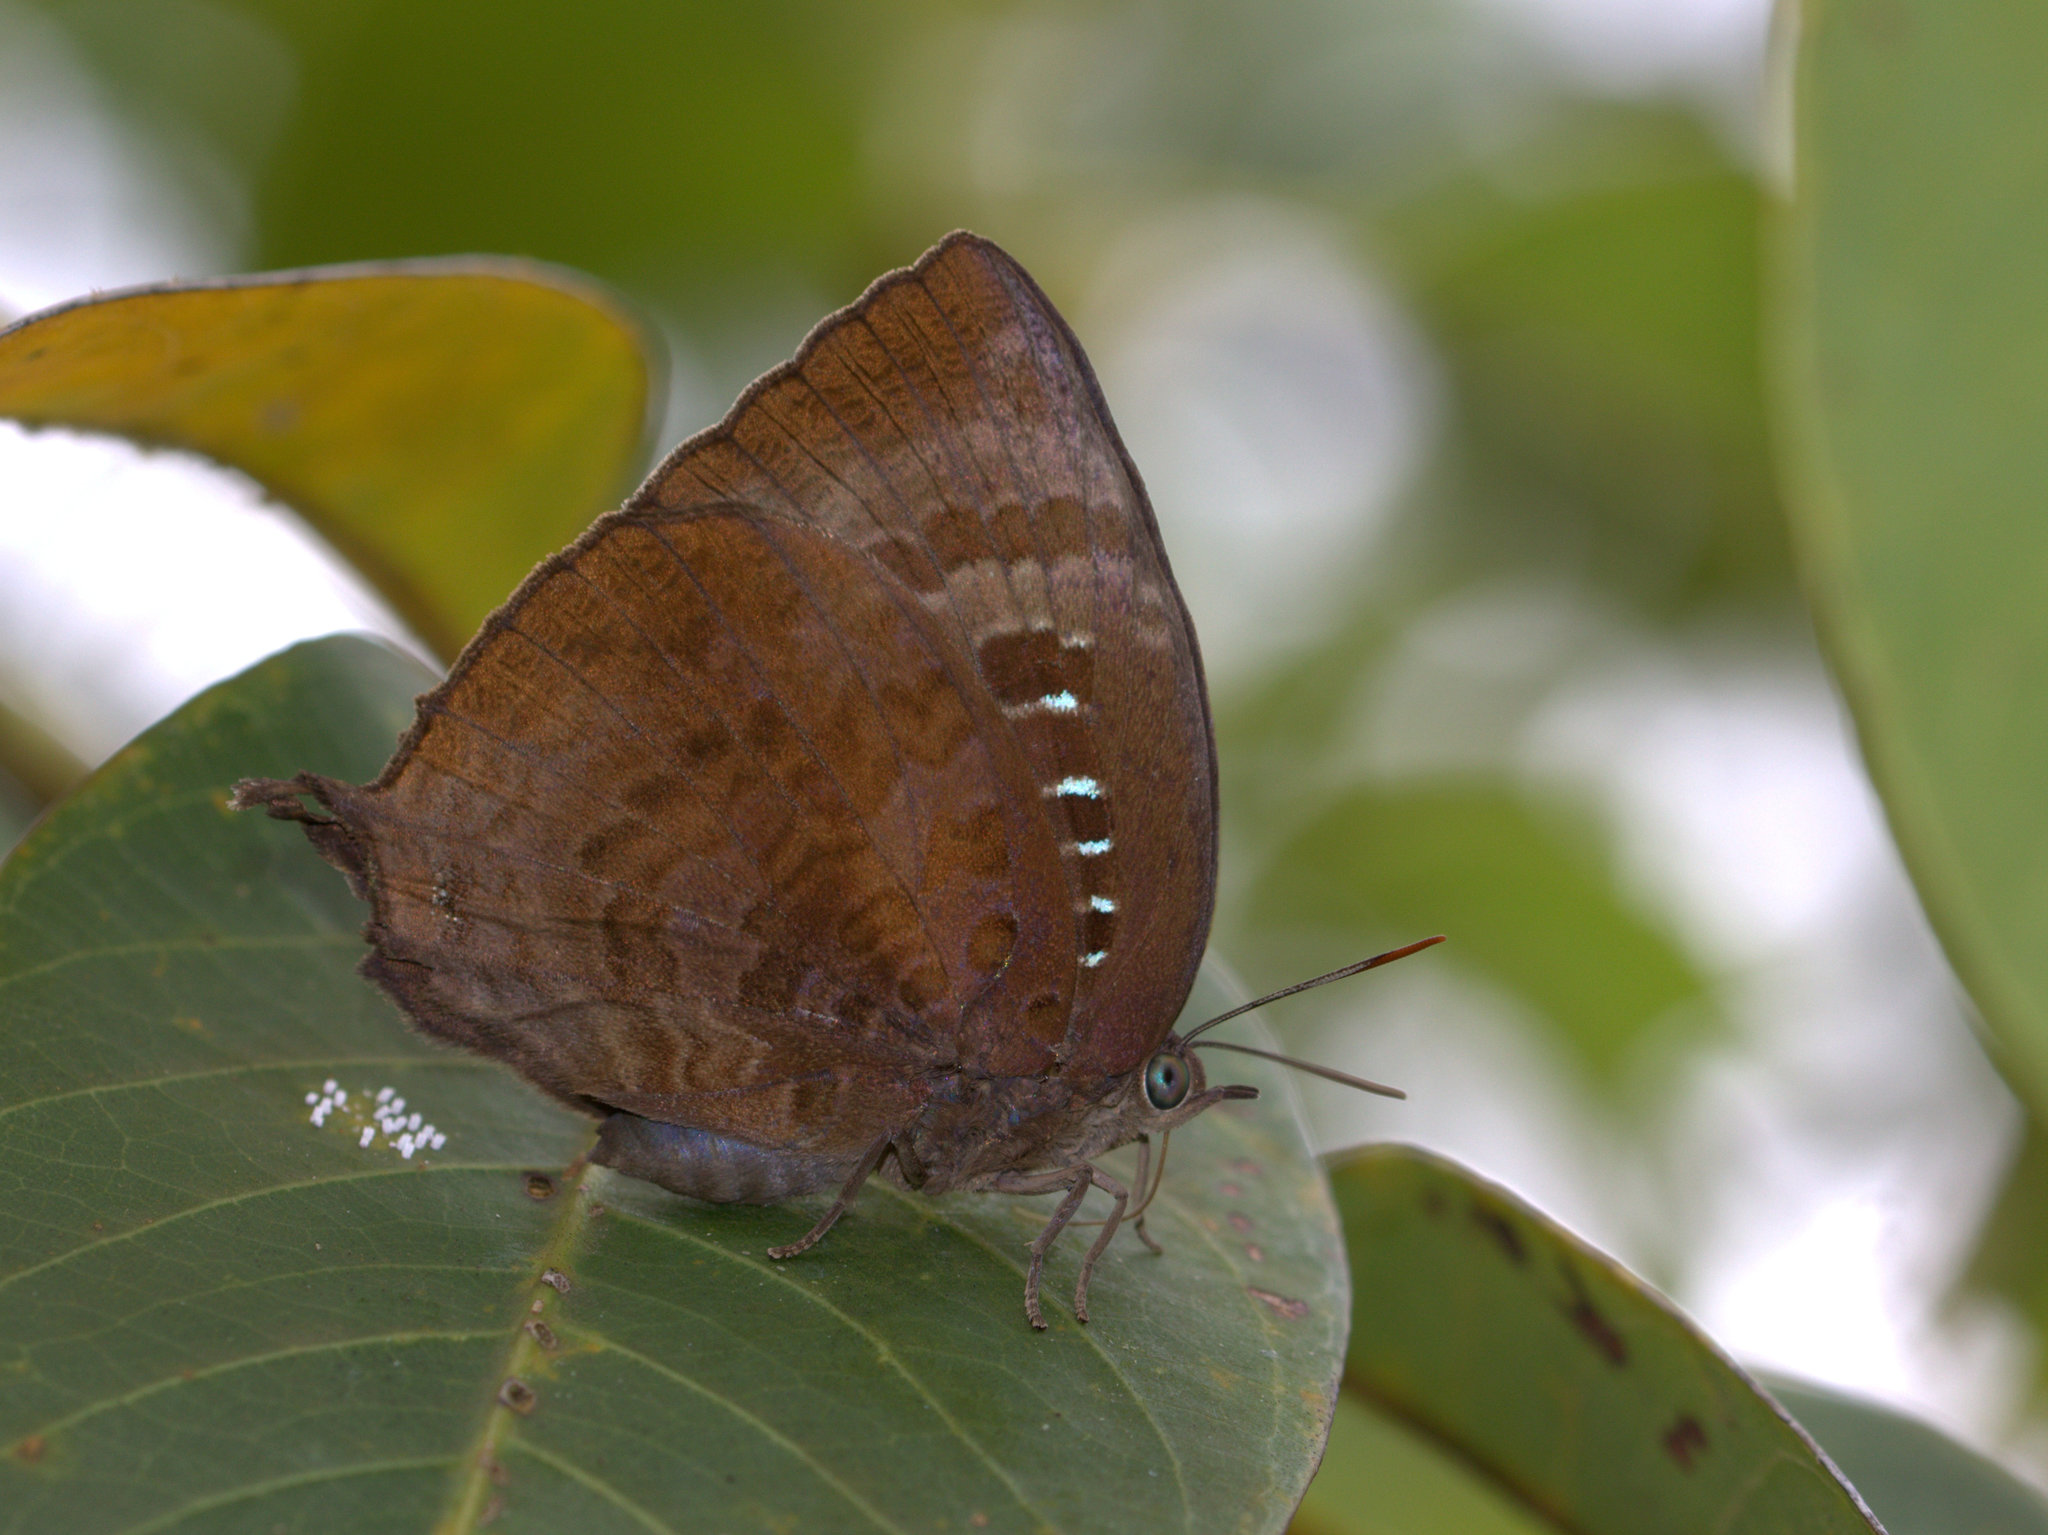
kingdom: Animalia
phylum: Arthropoda
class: Insecta
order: Lepidoptera
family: Lycaenidae
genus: Arhopala
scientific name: Arhopala centaurus
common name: Dull oak-blue
